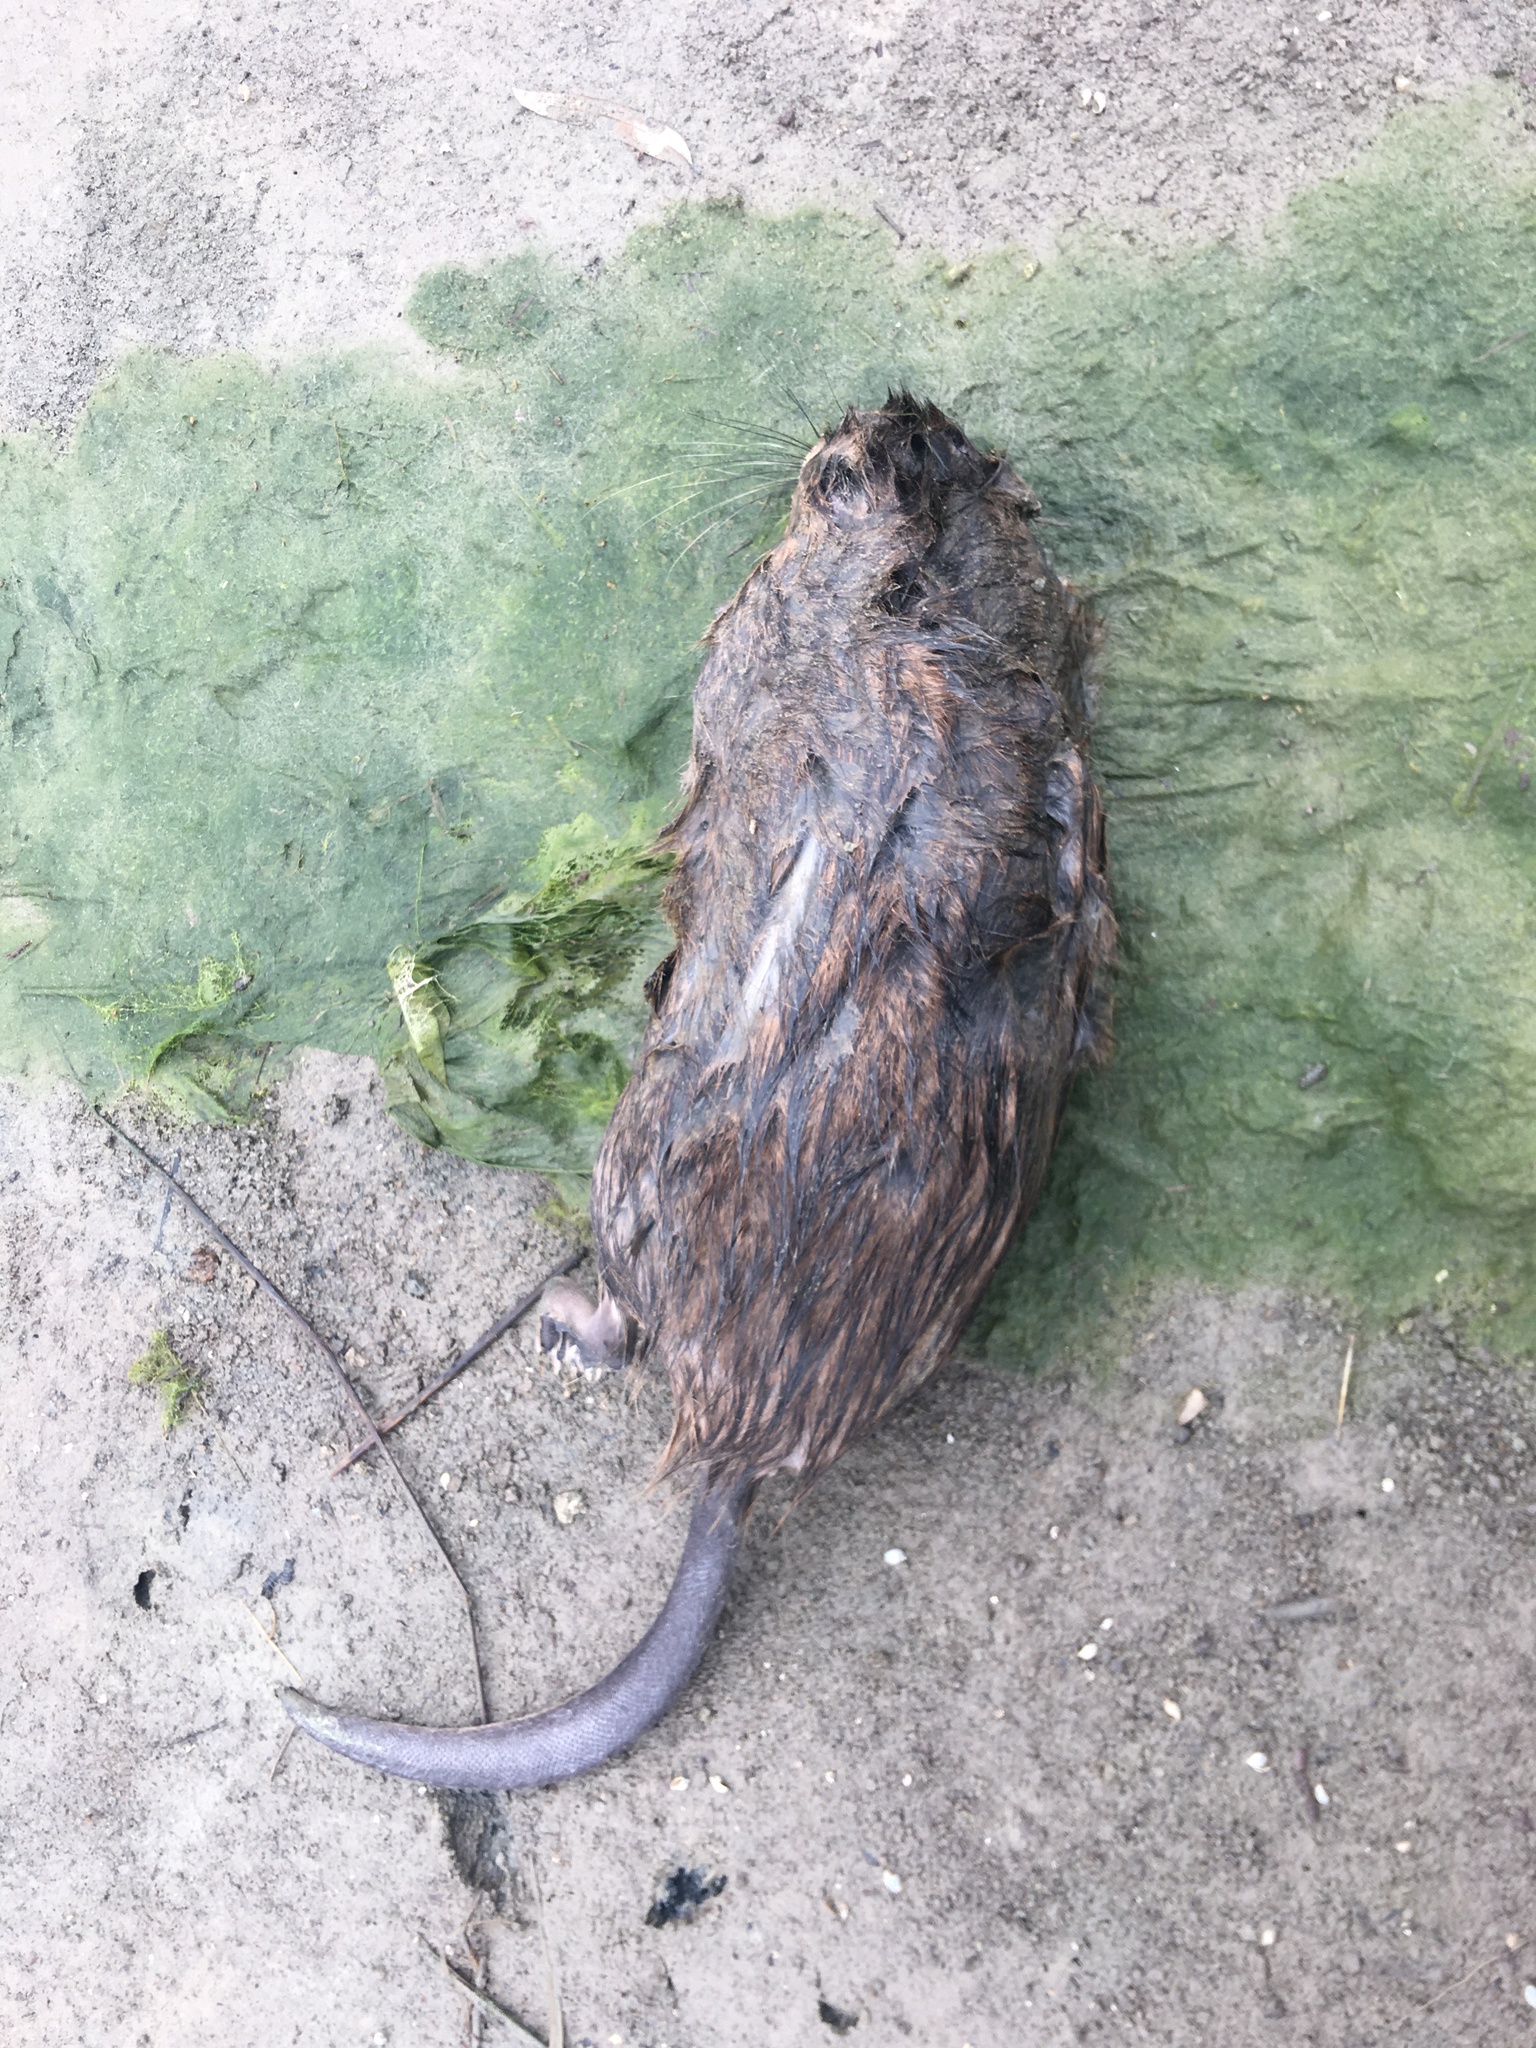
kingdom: Animalia
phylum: Chordata
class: Mammalia
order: Rodentia
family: Cricetidae
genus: Ondatra
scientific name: Ondatra zibethicus
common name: Muskrat
